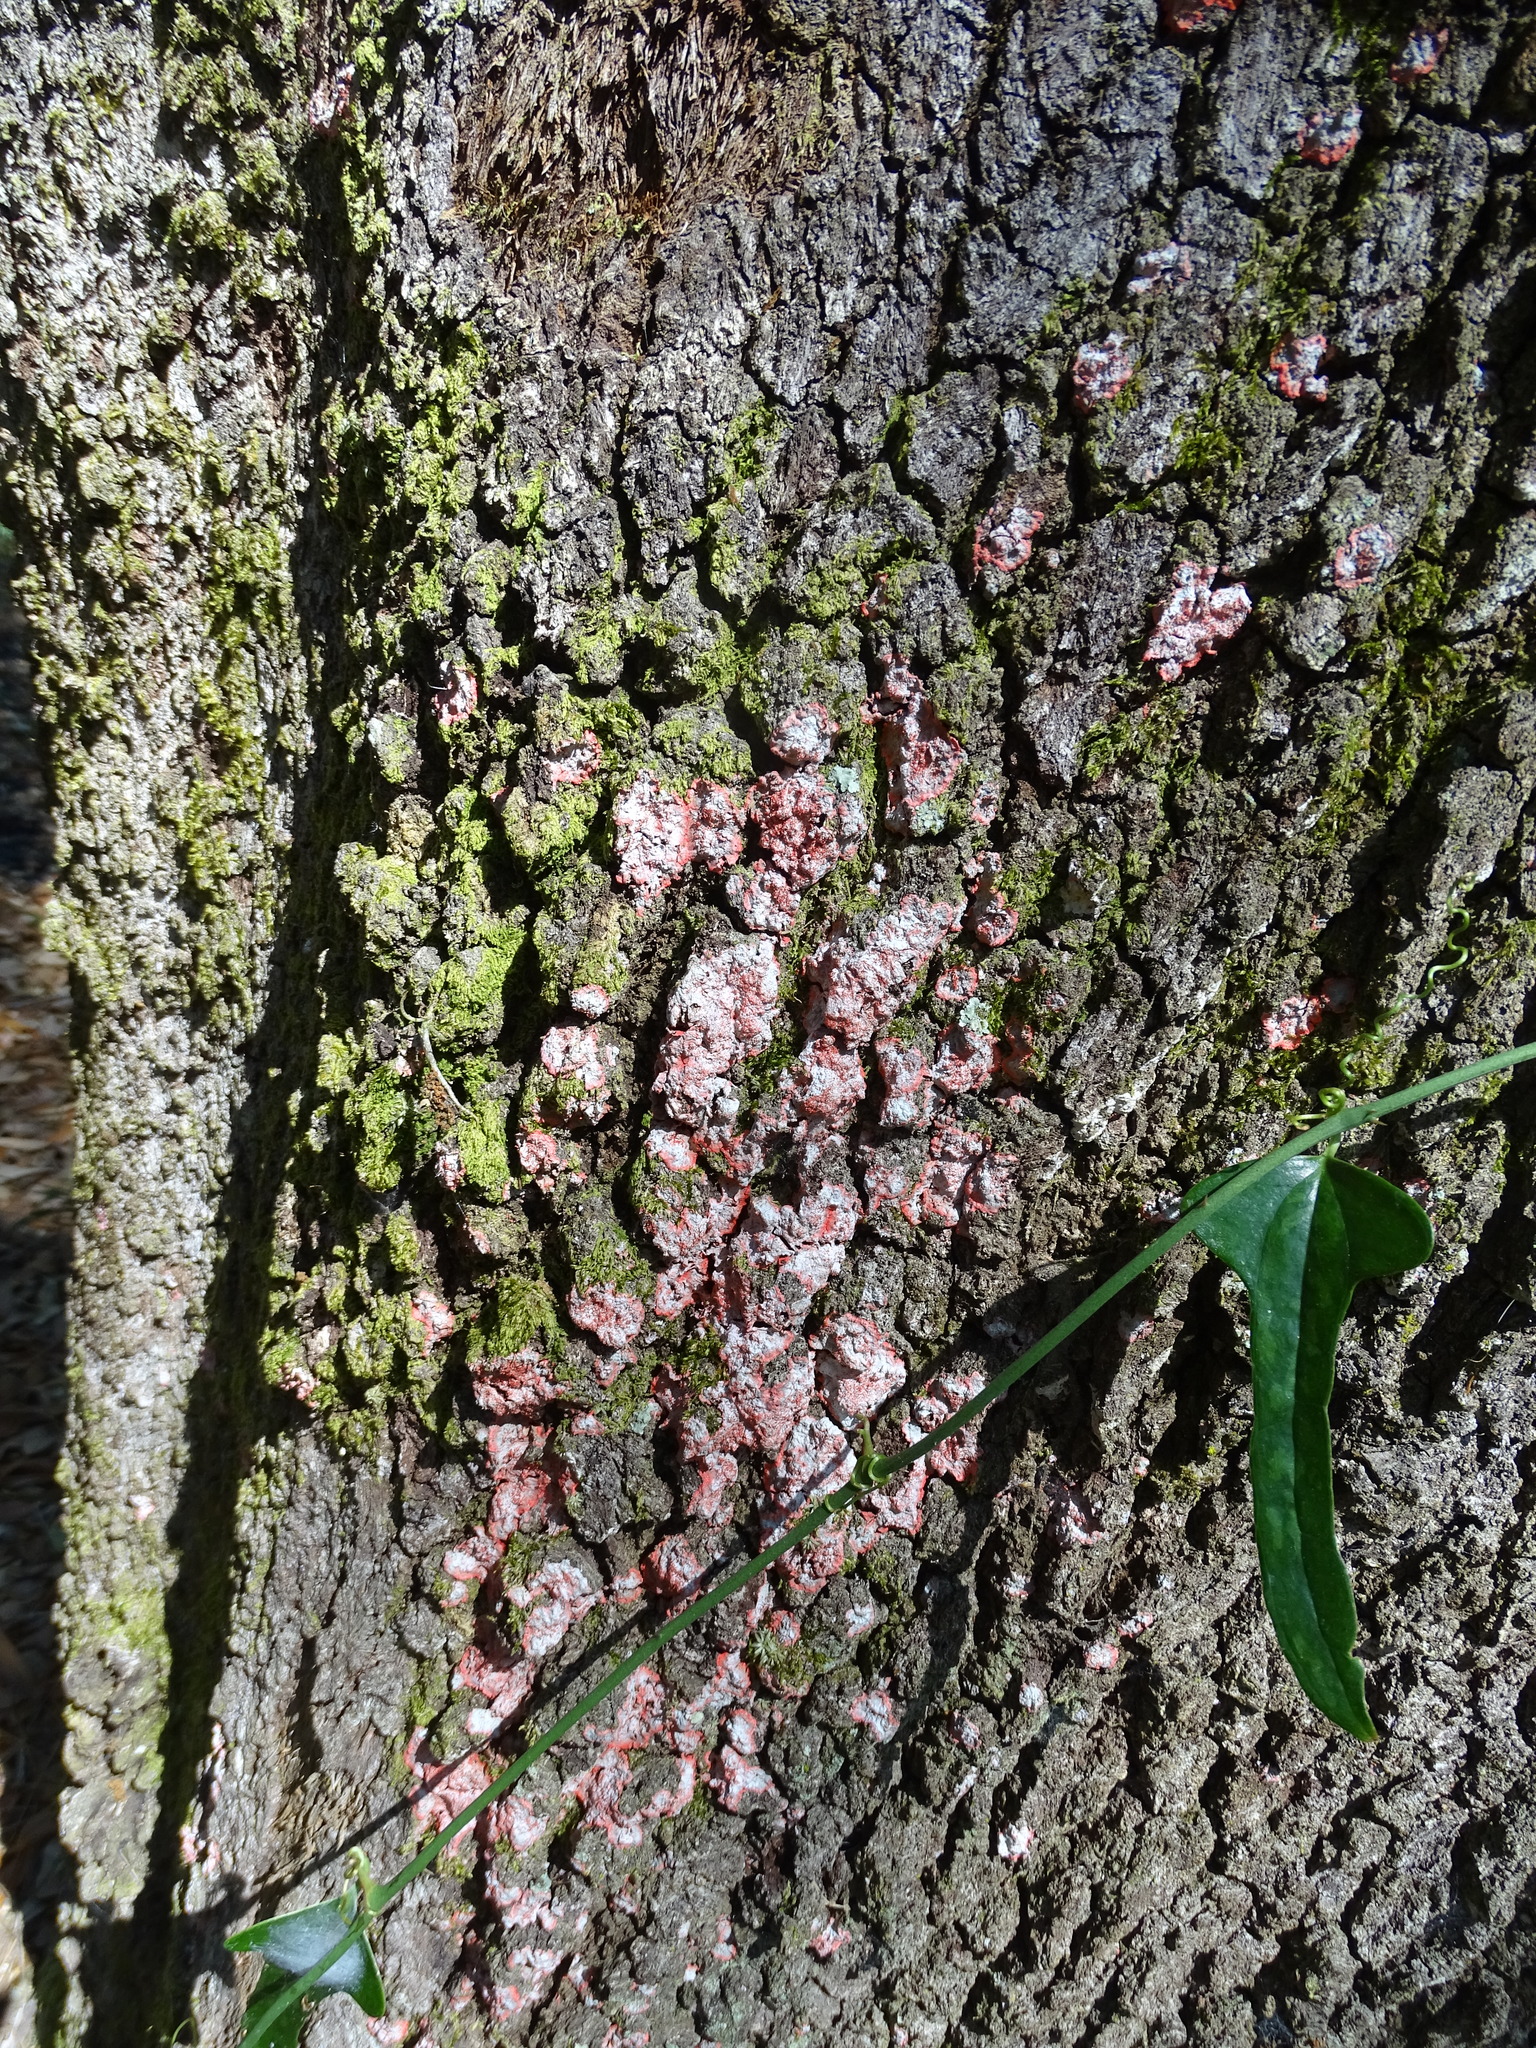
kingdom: Fungi
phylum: Ascomycota
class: Arthoniomycetes
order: Arthoniales
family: Arthoniaceae
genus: Herpothallon
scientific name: Herpothallon rubrocinctum
